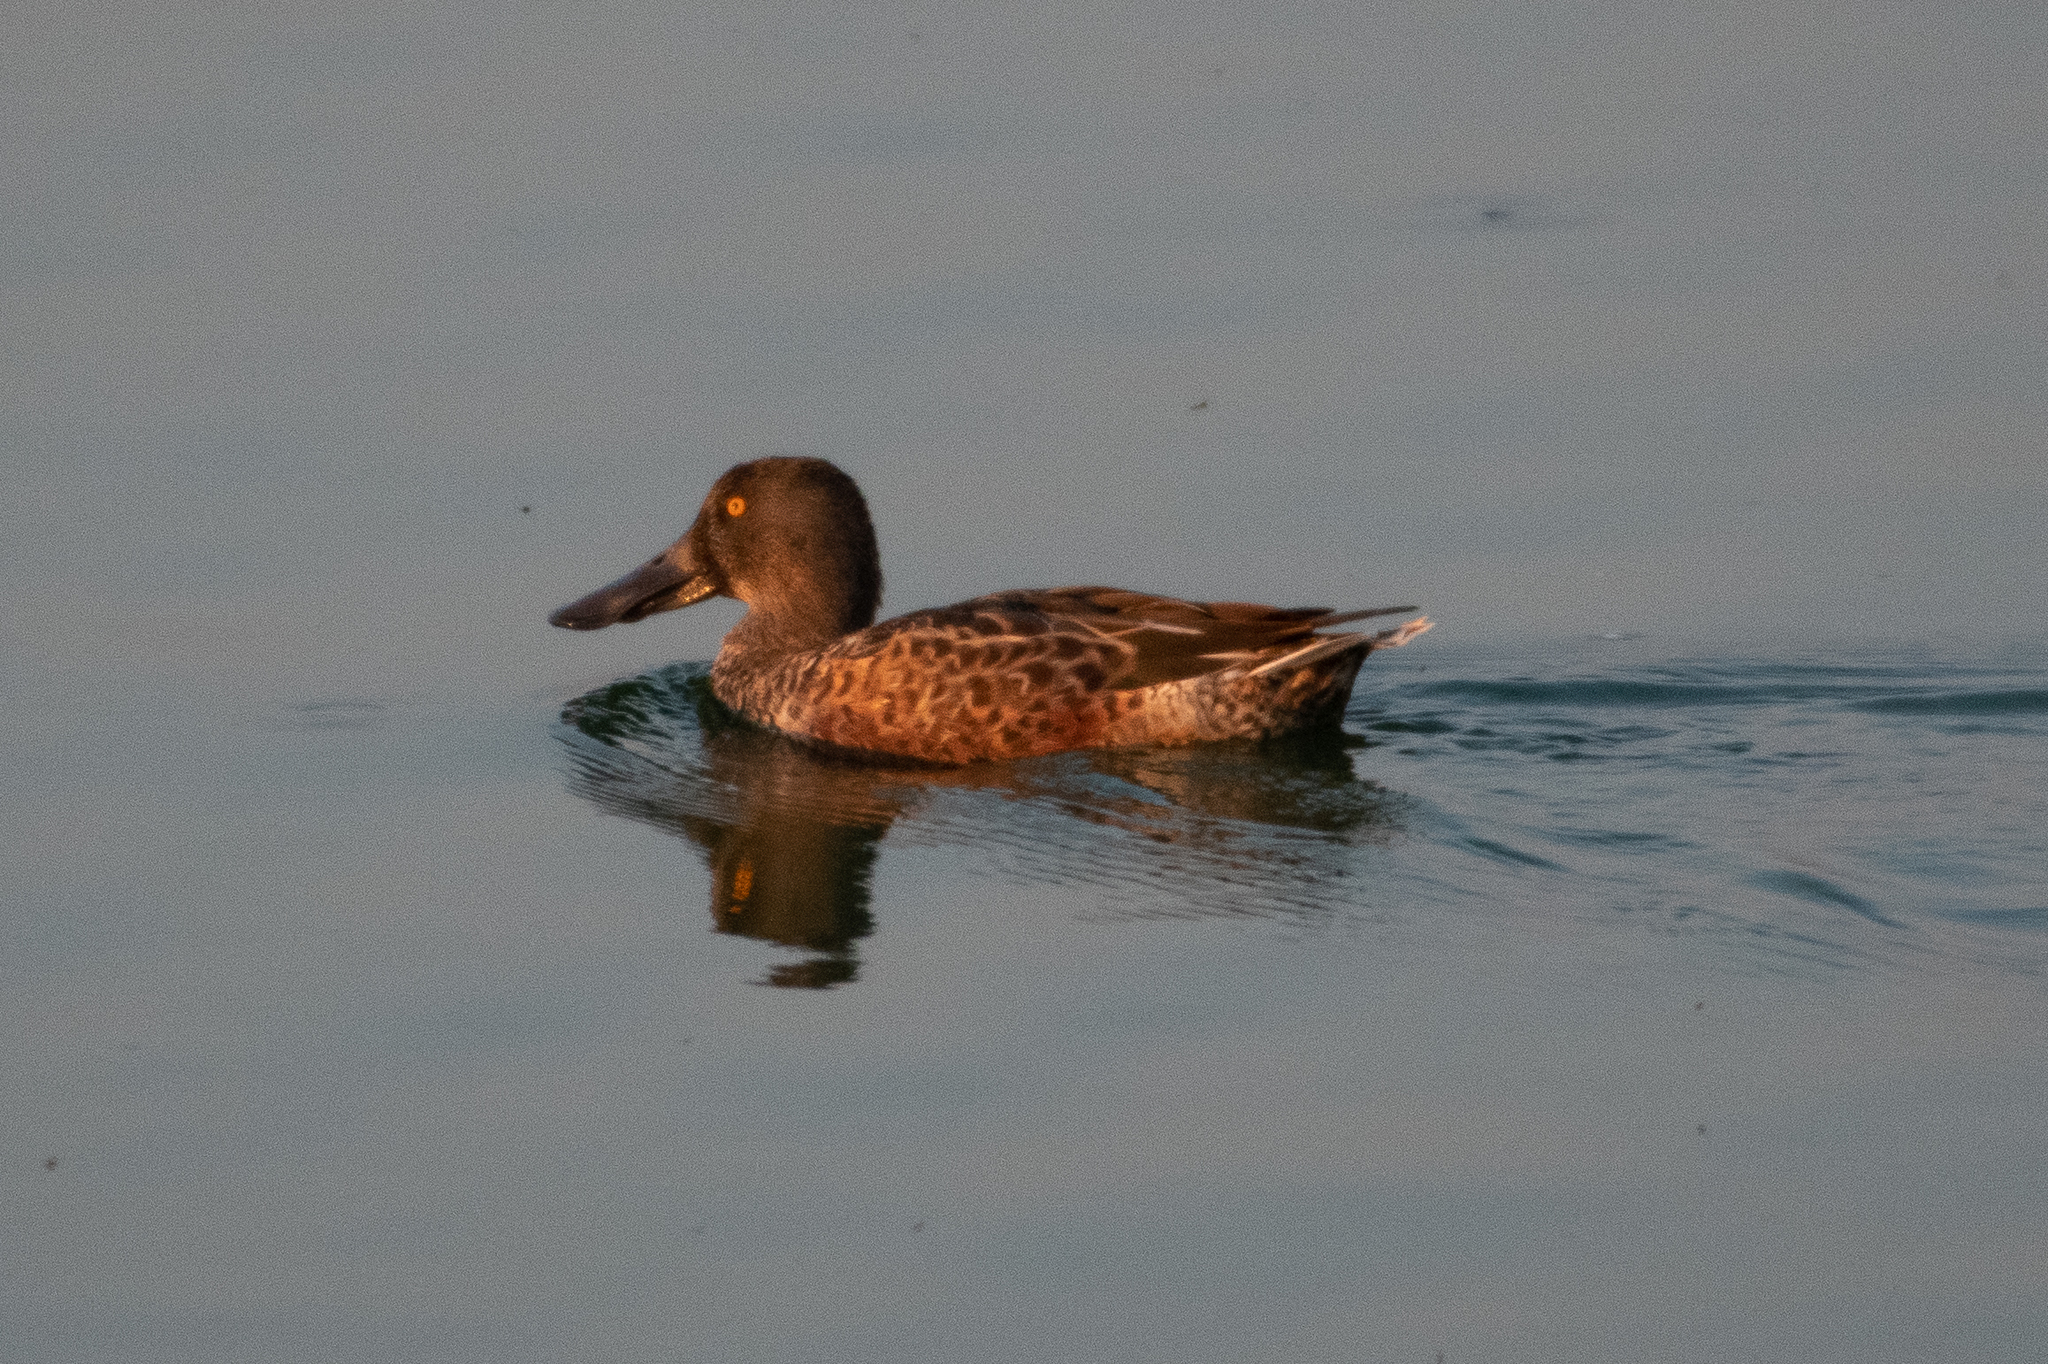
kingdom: Animalia
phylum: Chordata
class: Aves
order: Anseriformes
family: Anatidae
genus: Spatula
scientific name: Spatula clypeata
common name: Northern shoveler
